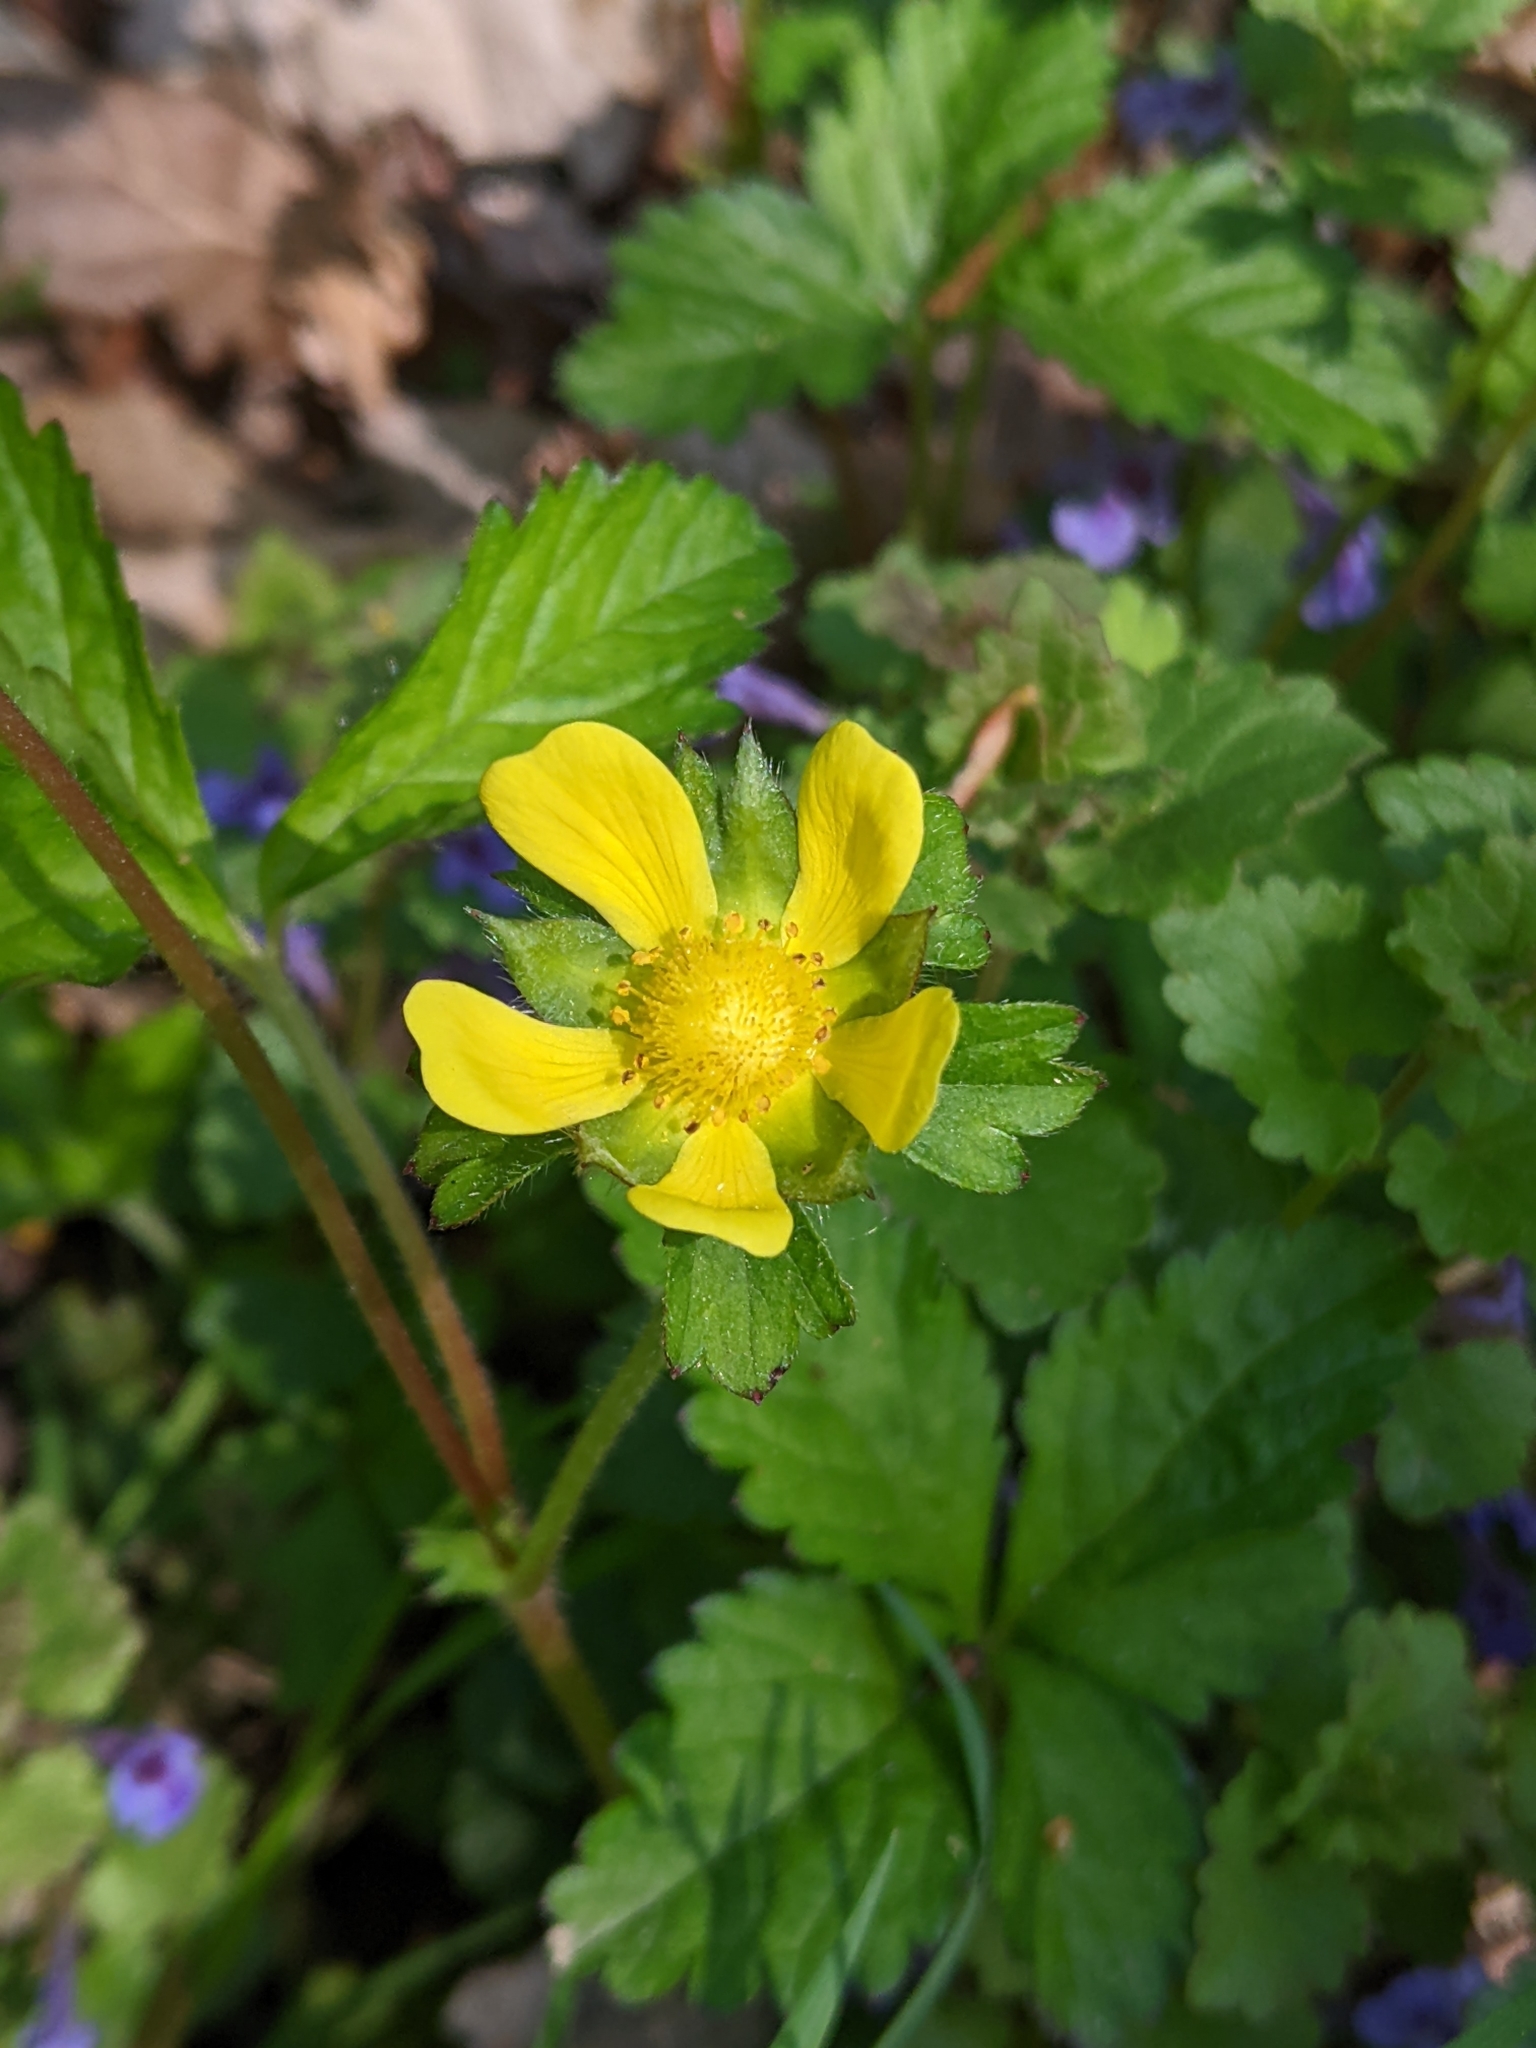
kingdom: Plantae
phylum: Tracheophyta
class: Magnoliopsida
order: Rosales
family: Rosaceae
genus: Potentilla
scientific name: Potentilla indica
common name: Yellow-flowered strawberry
